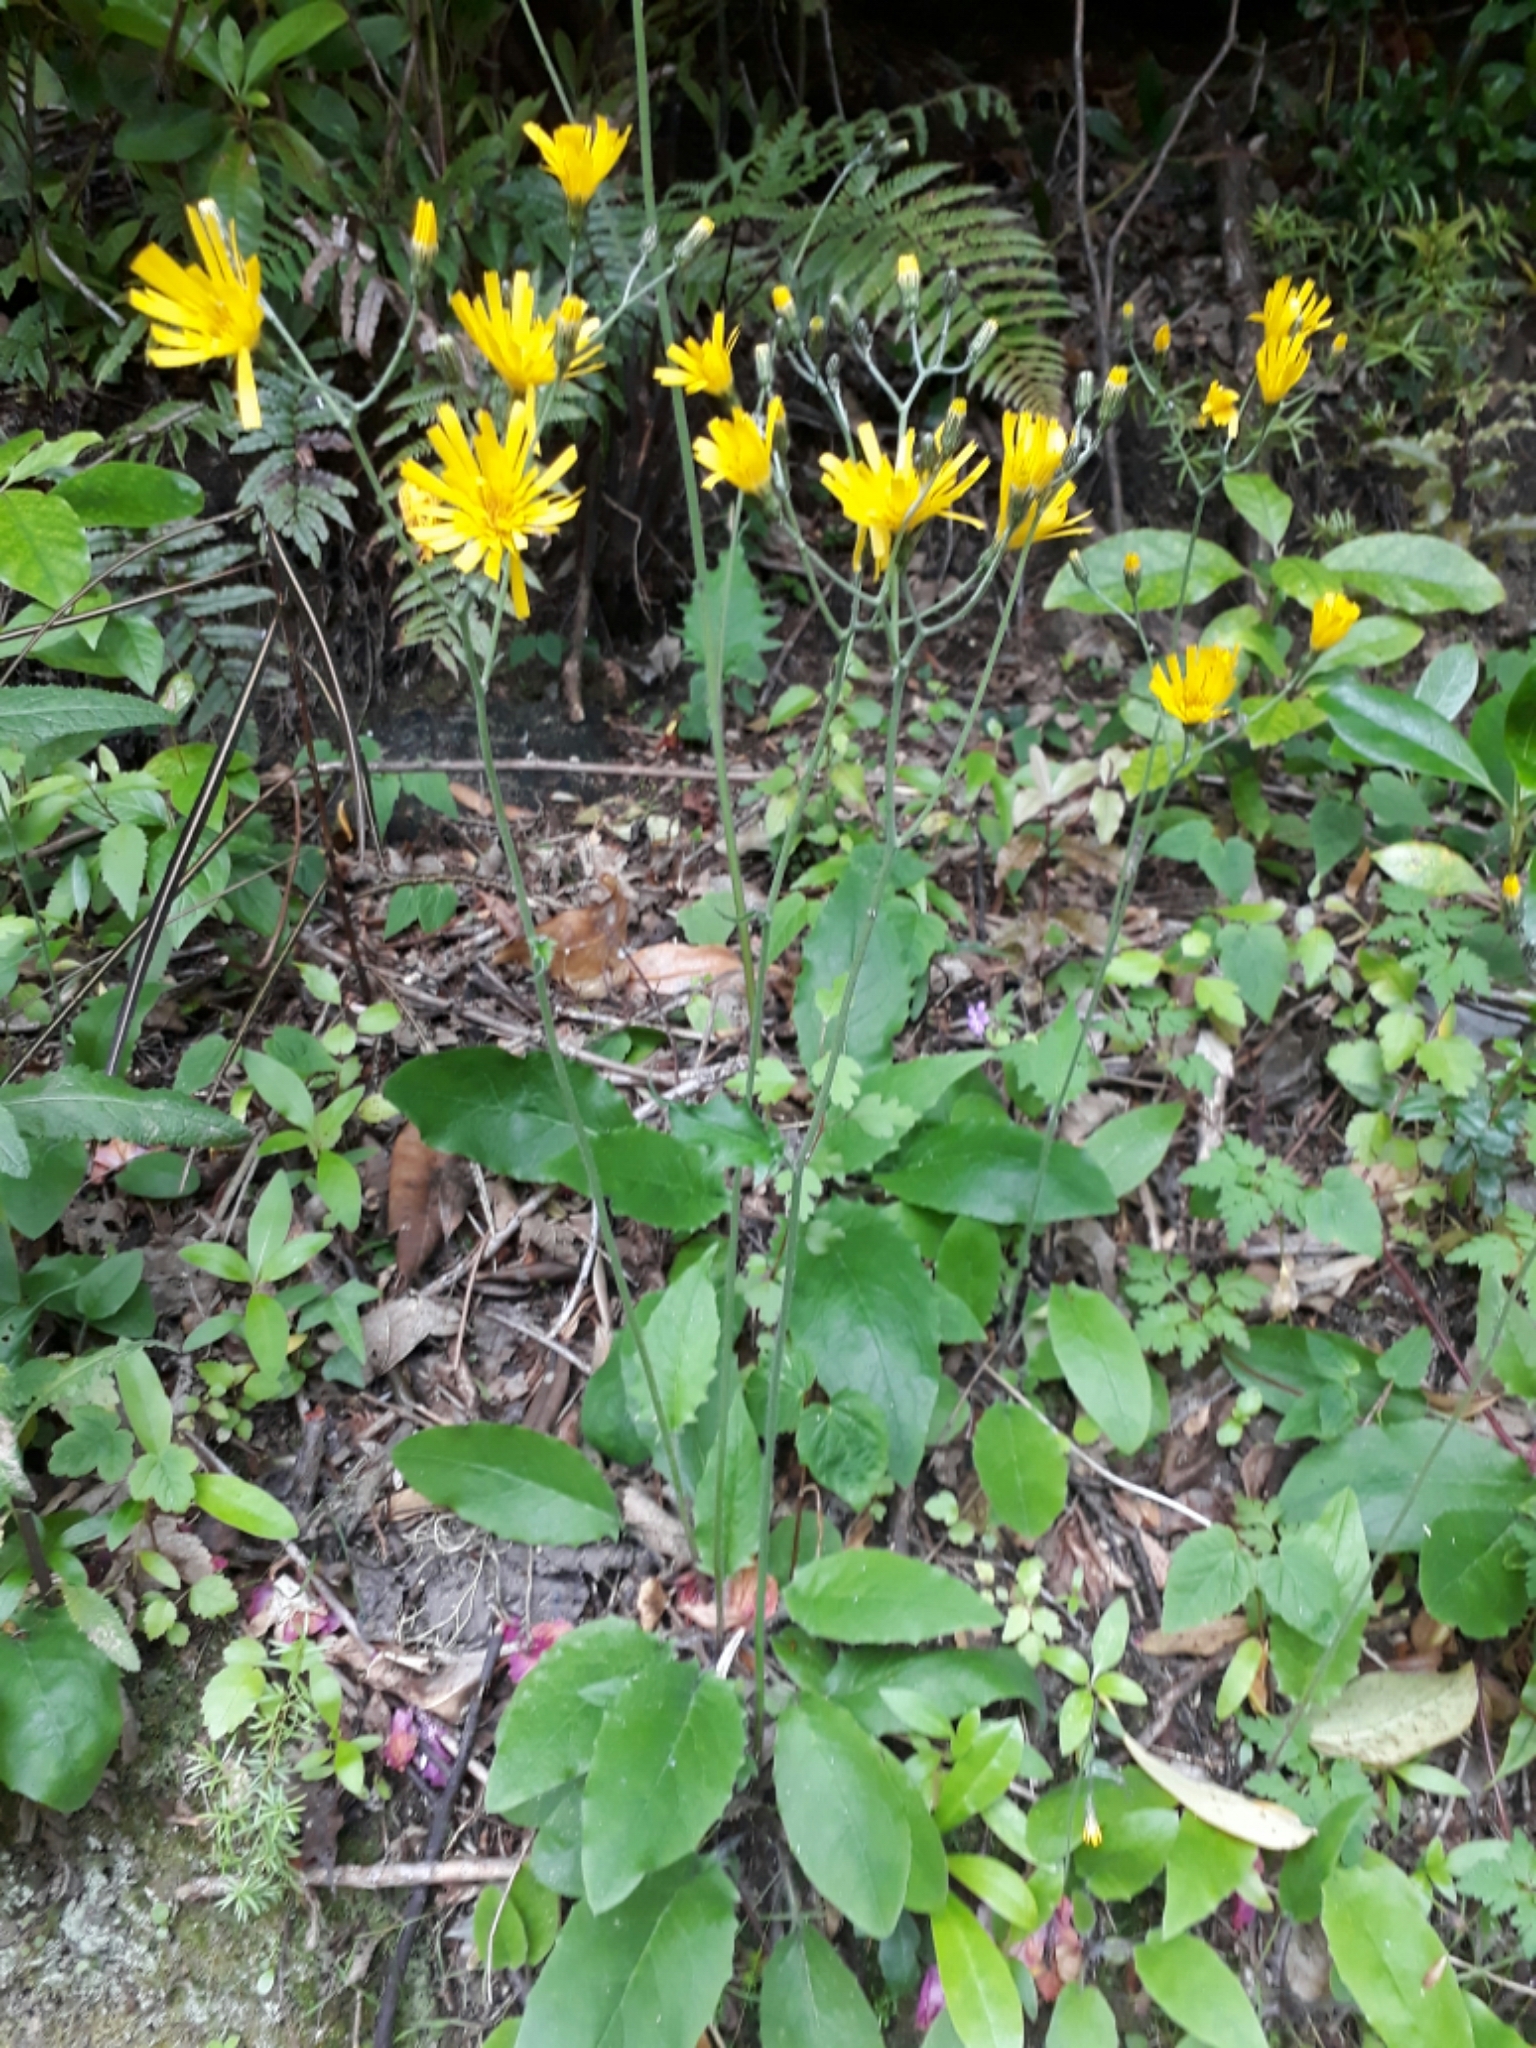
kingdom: Plantae
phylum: Tracheophyta
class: Magnoliopsida
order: Asterales
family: Asteraceae
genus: Hieracium
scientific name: Hieracium lepidulum
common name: Irregular-toothed hawkweed
